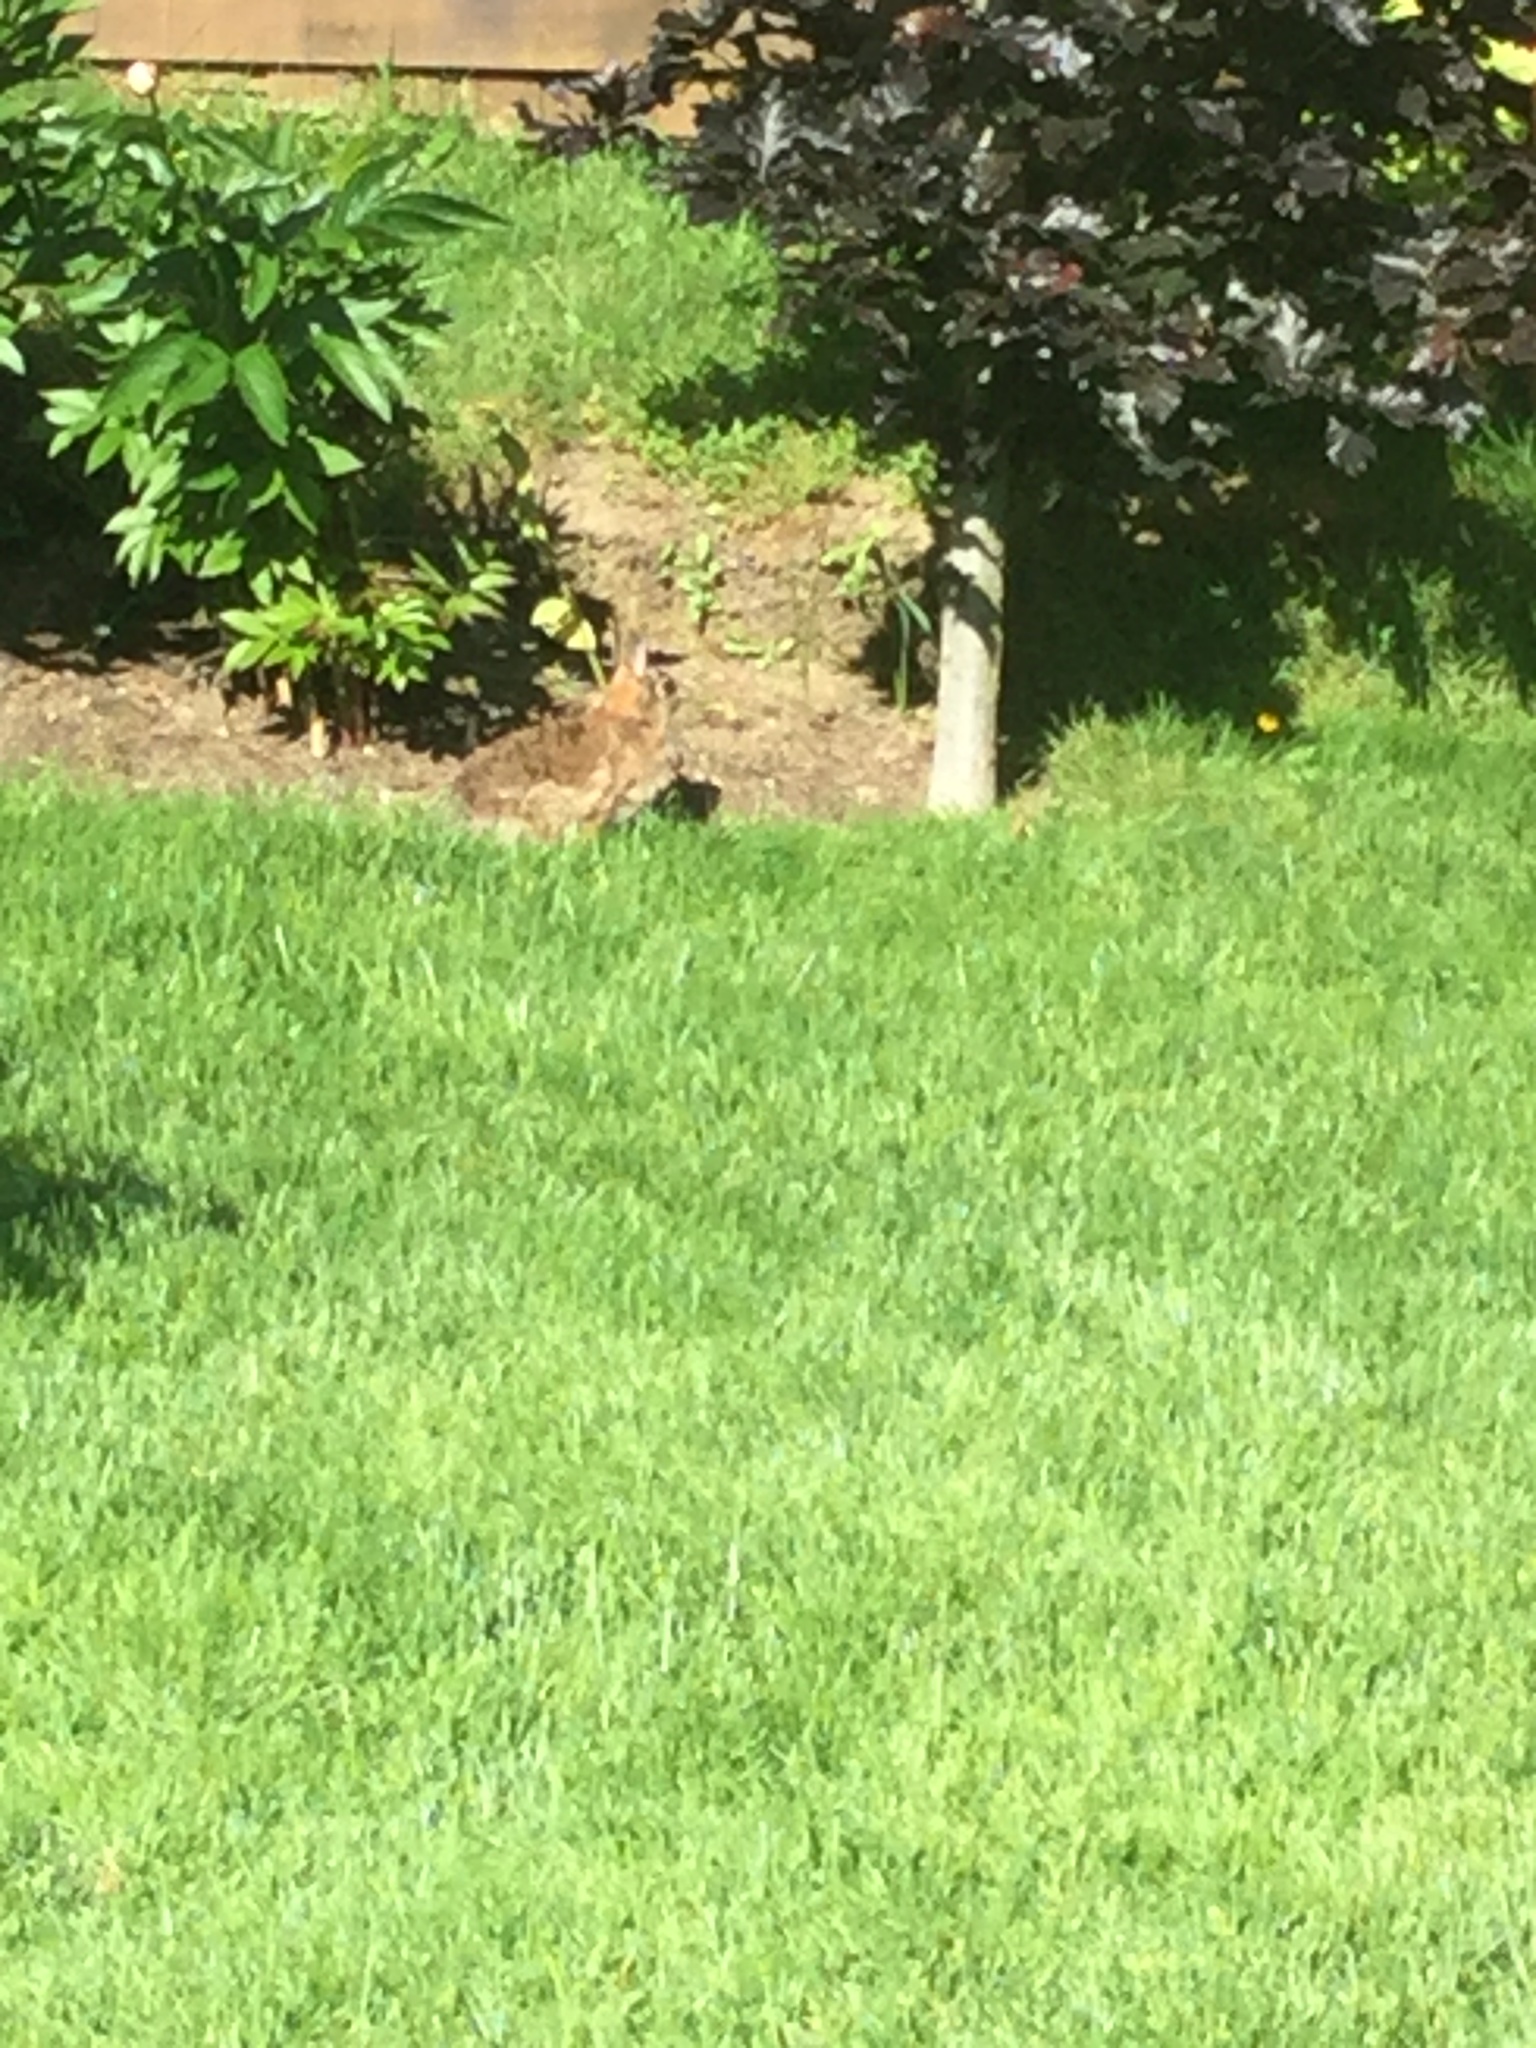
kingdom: Animalia
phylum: Chordata
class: Mammalia
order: Lagomorpha
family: Leporidae
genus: Sylvilagus
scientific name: Sylvilagus floridanus
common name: Eastern cottontail
